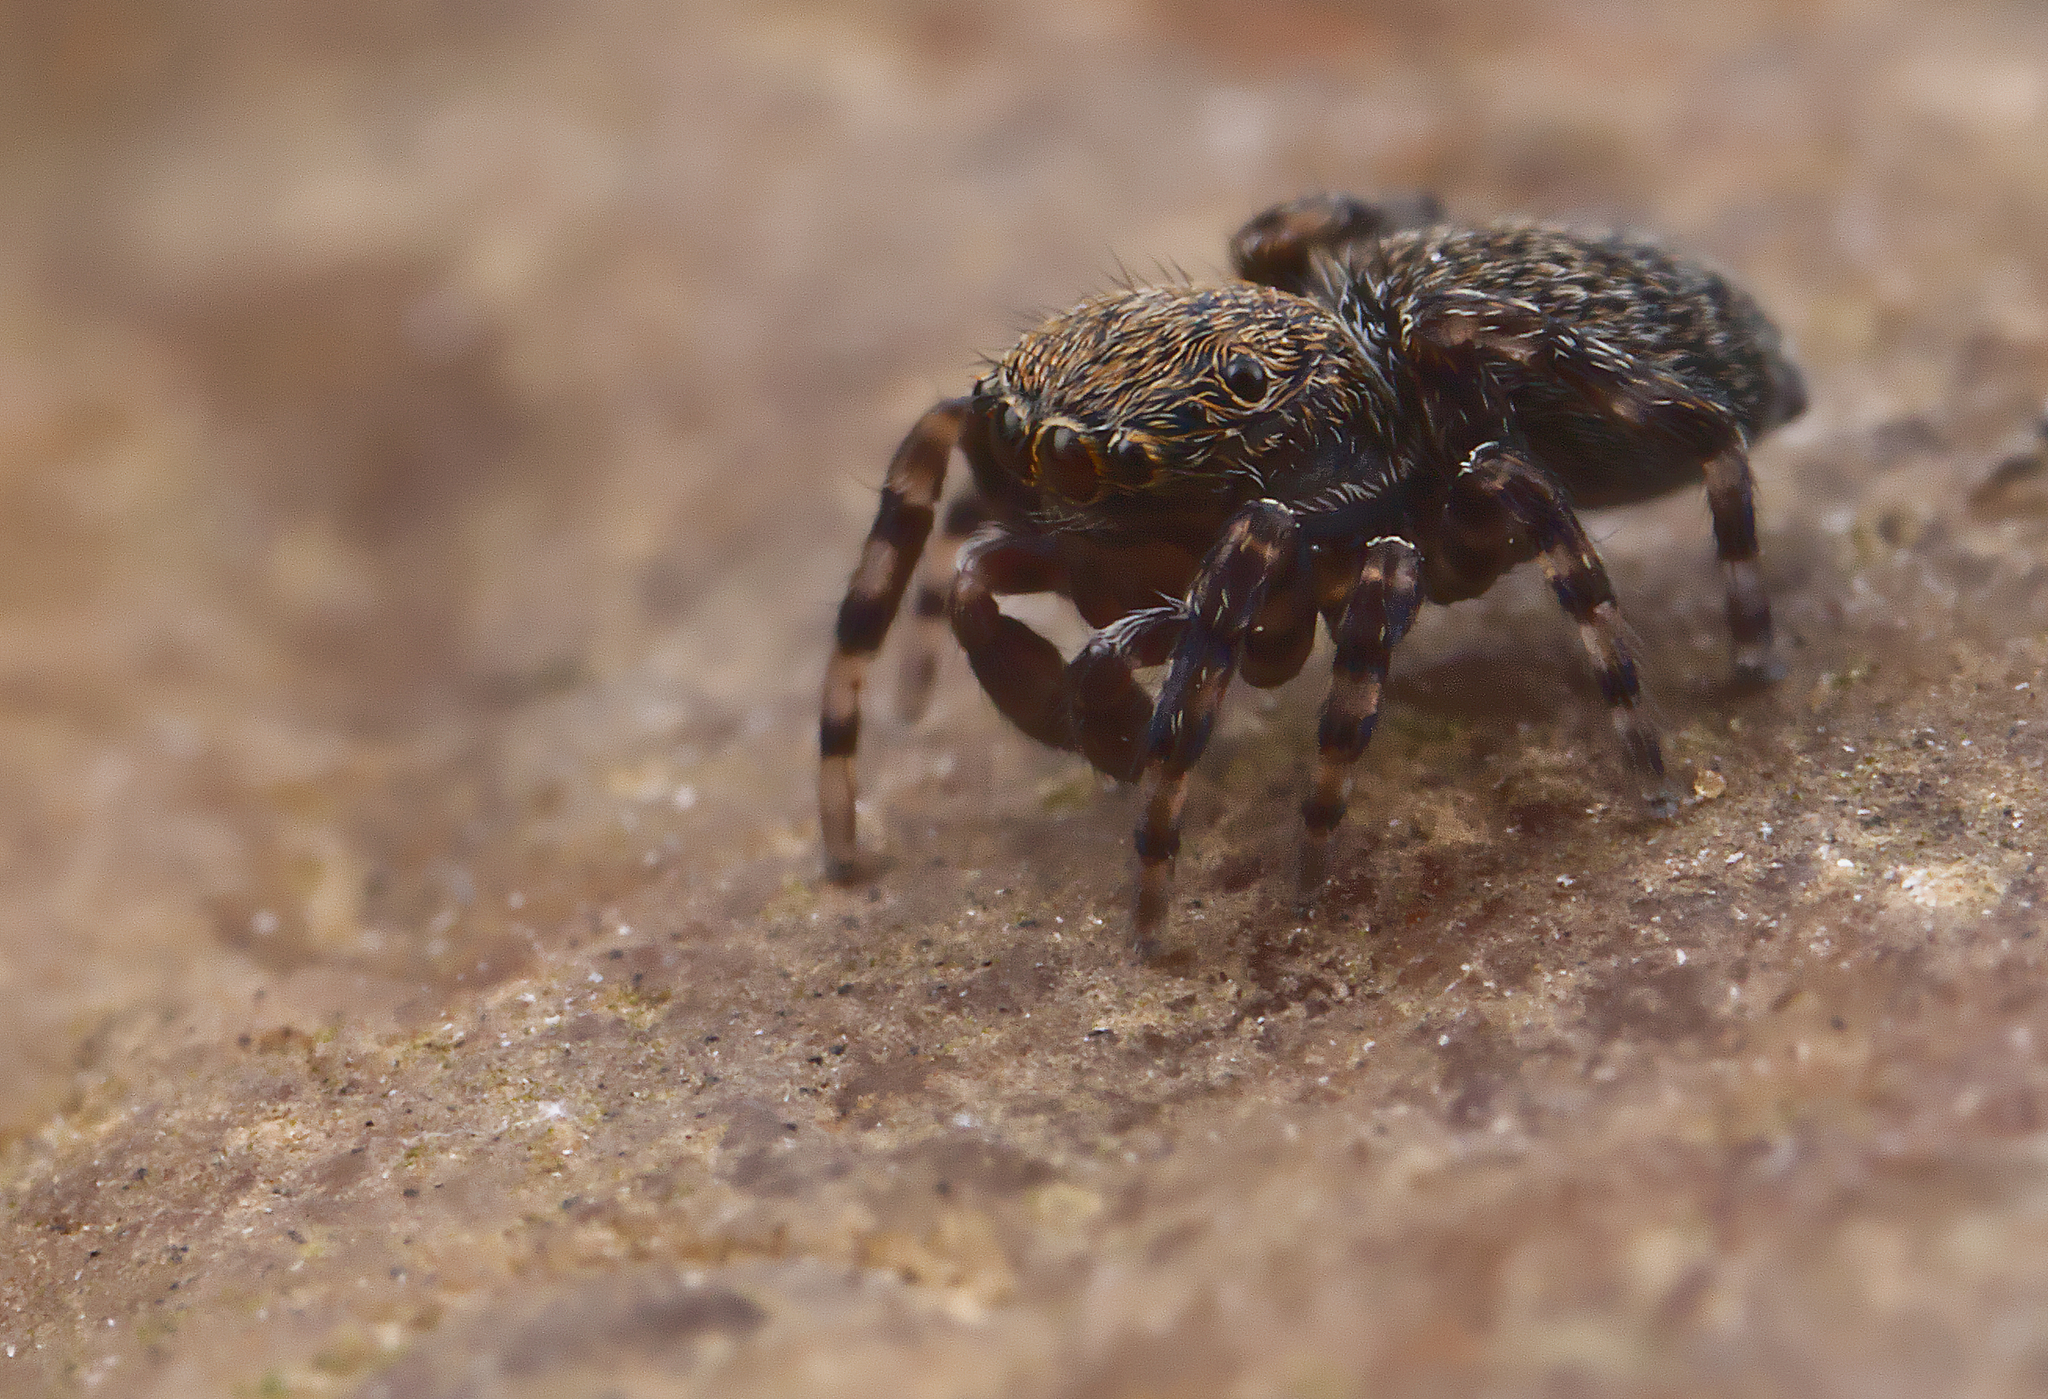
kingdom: Animalia
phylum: Arthropoda
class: Arachnida
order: Araneae
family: Salticidae
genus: Attinella
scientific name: Attinella concolor
